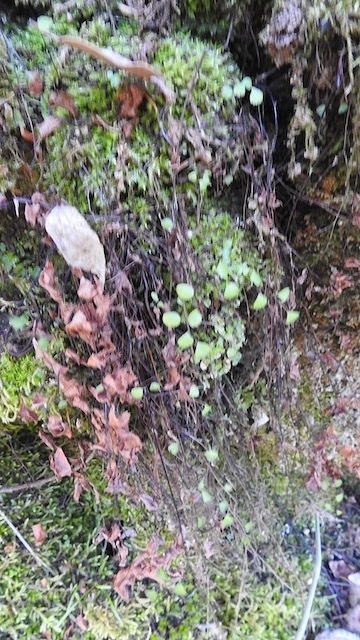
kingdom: Plantae
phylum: Tracheophyta
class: Polypodiopsida
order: Polypodiales
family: Pteridaceae
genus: Adiantum
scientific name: Adiantum jordanii
